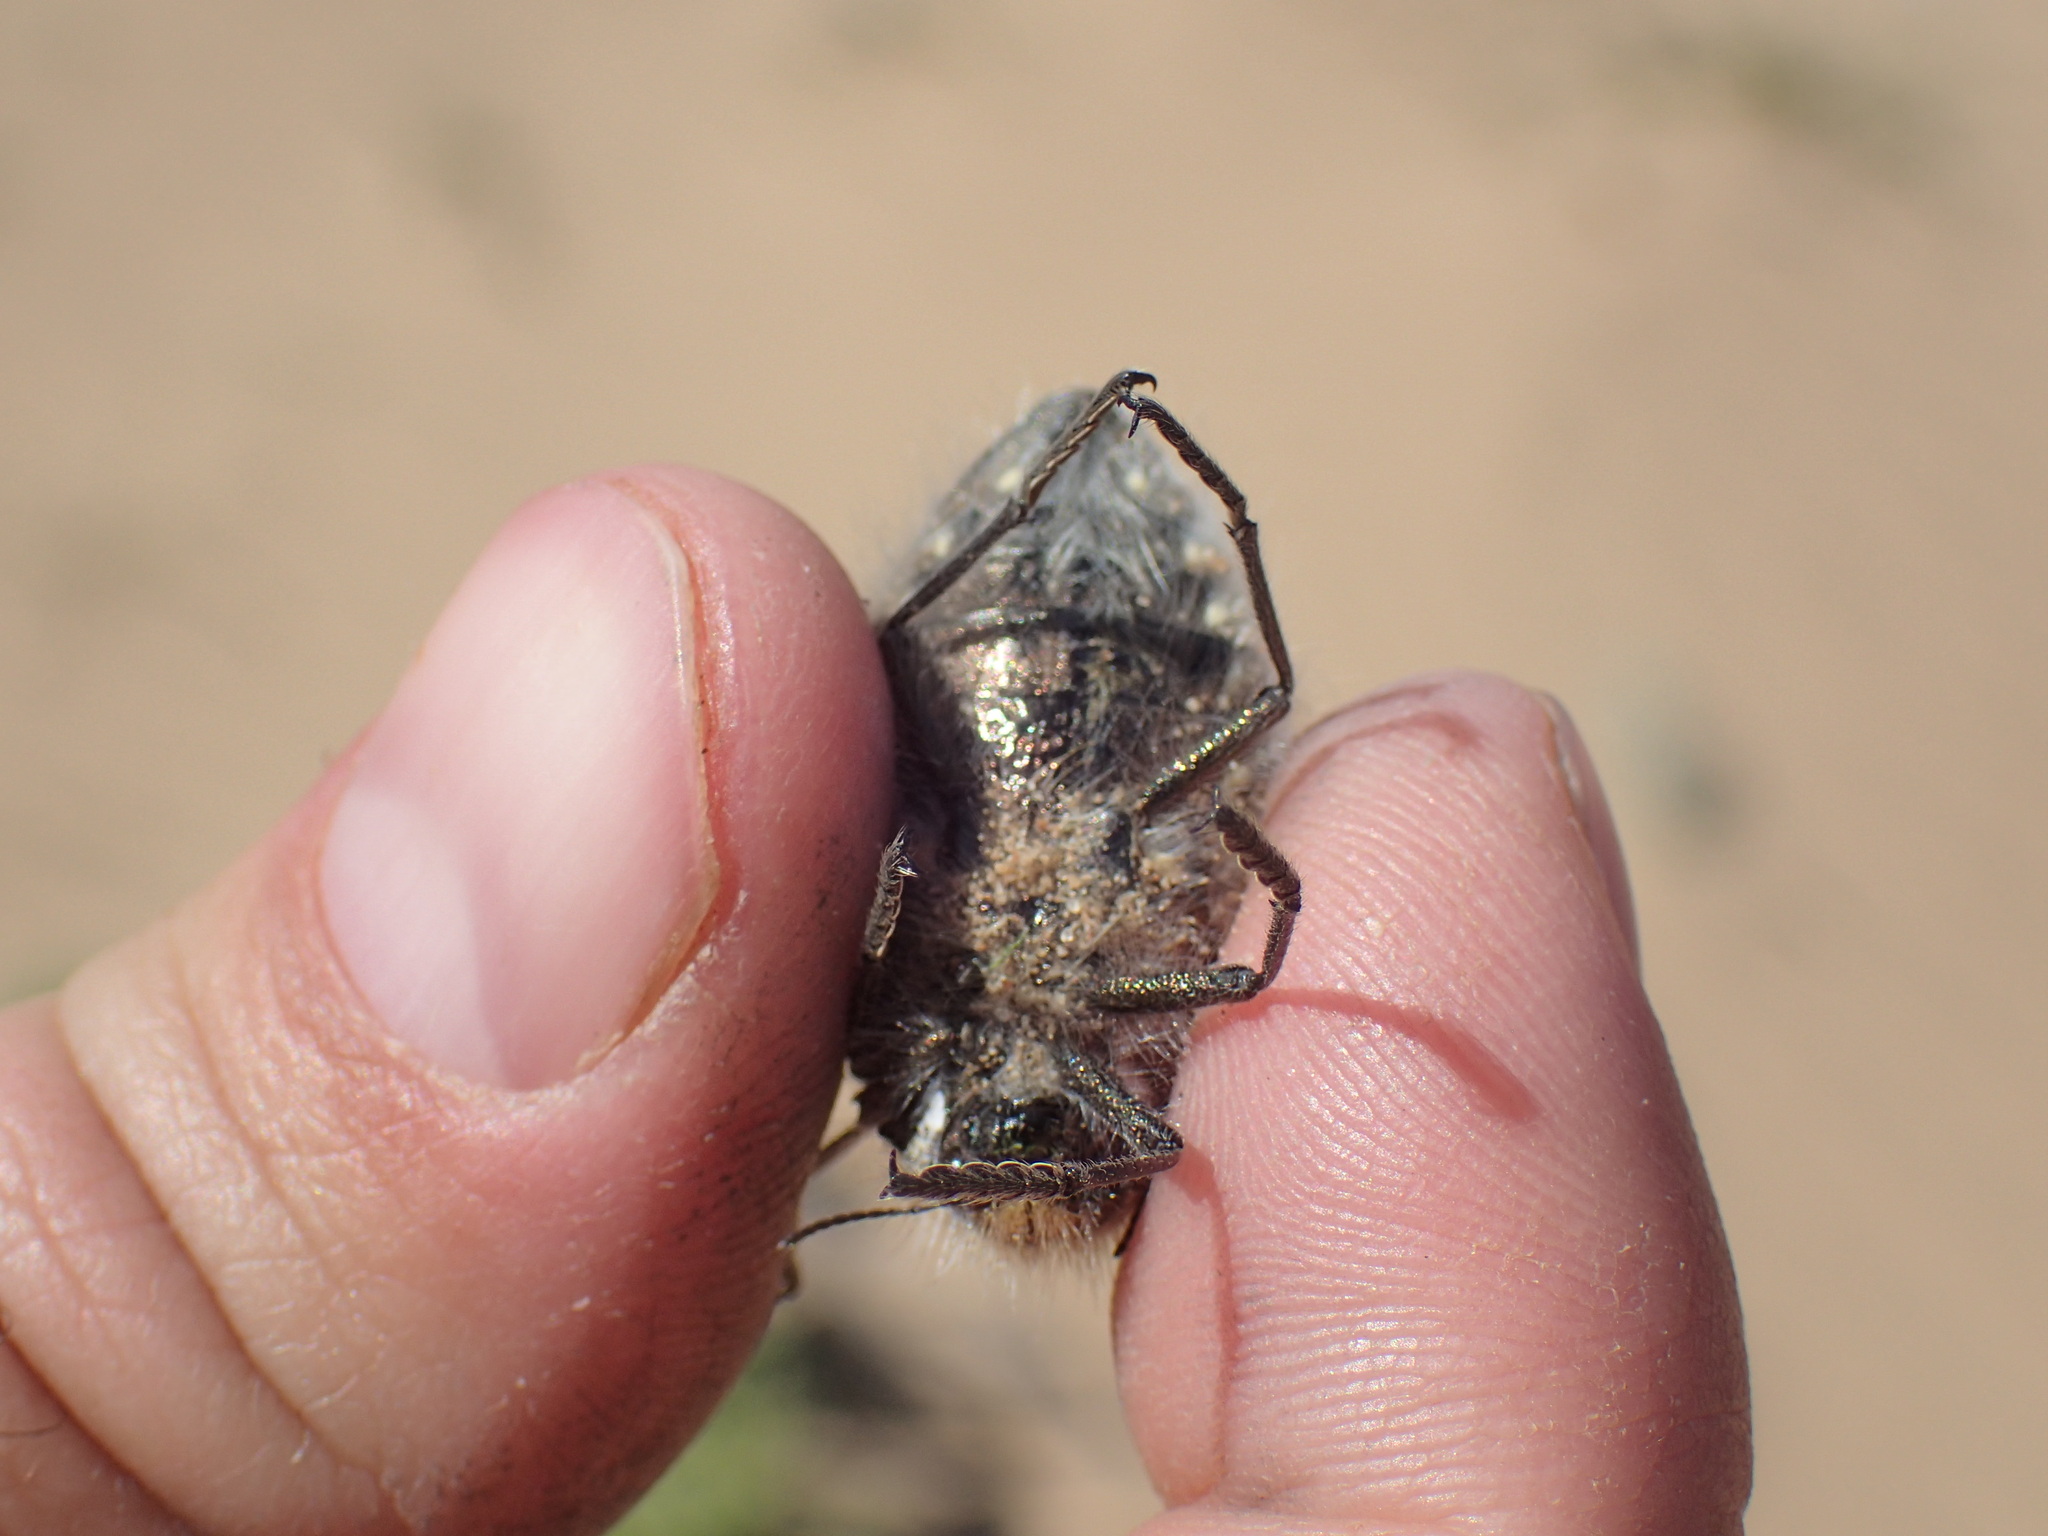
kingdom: Animalia
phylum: Arthropoda
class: Insecta
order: Coleoptera
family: Buprestidae
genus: Julodis
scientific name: Julodis desertica
